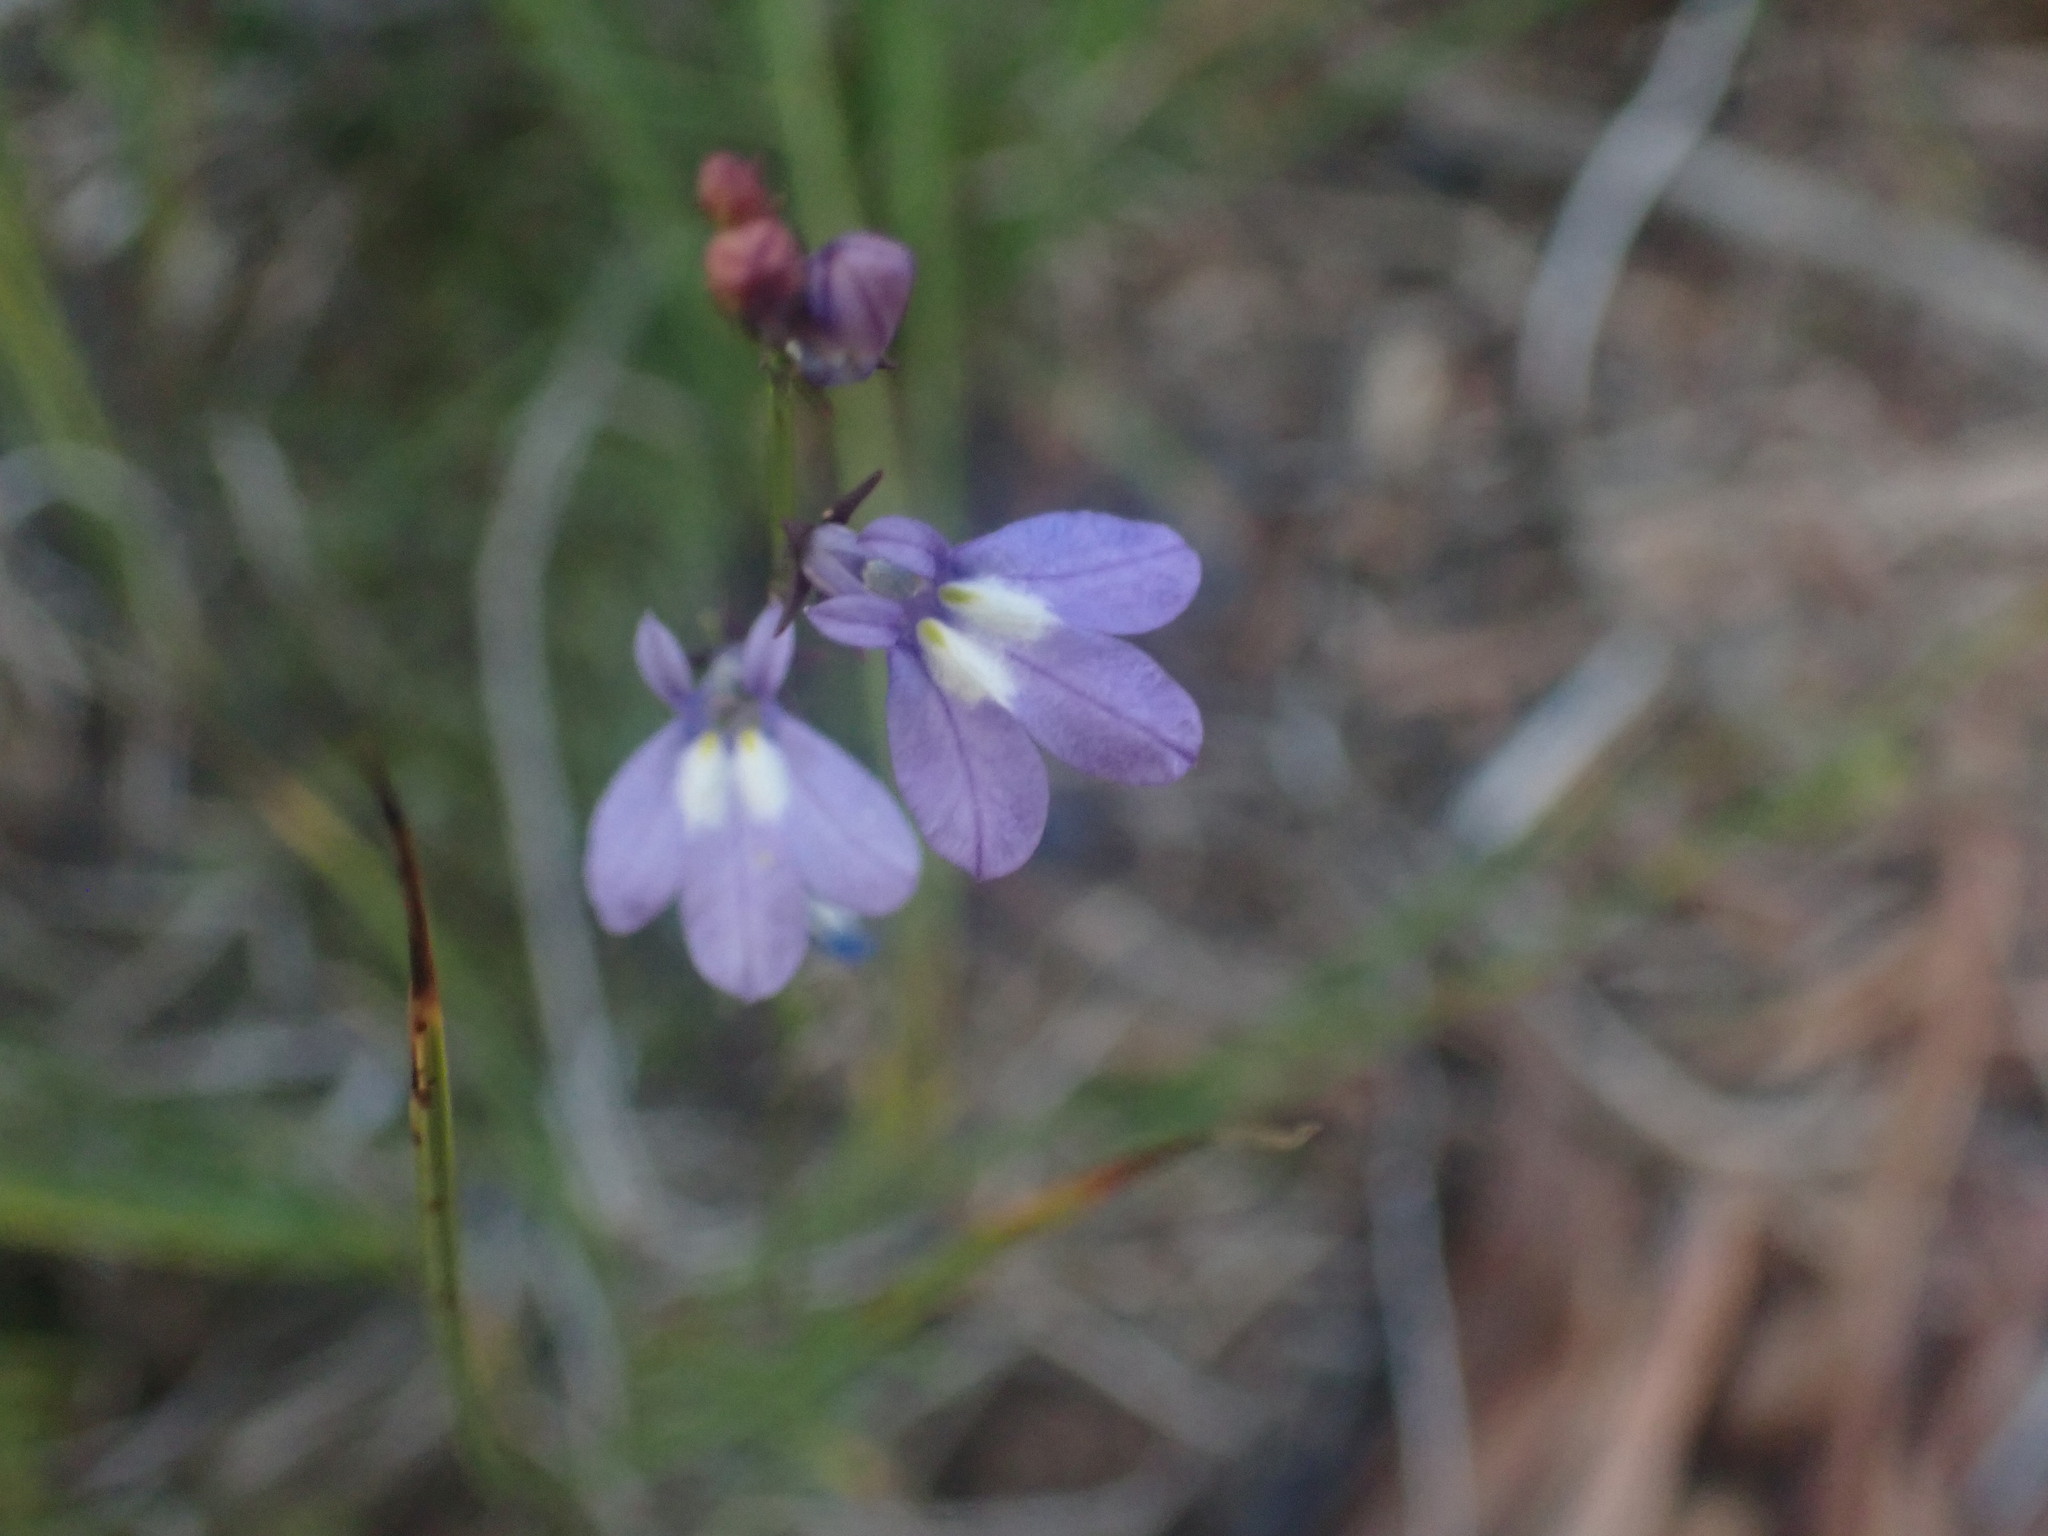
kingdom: Plantae
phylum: Tracheophyta
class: Magnoliopsida
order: Asterales
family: Campanulaceae
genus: Lobelia
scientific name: Lobelia kalmii
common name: Kalm's lobelia
